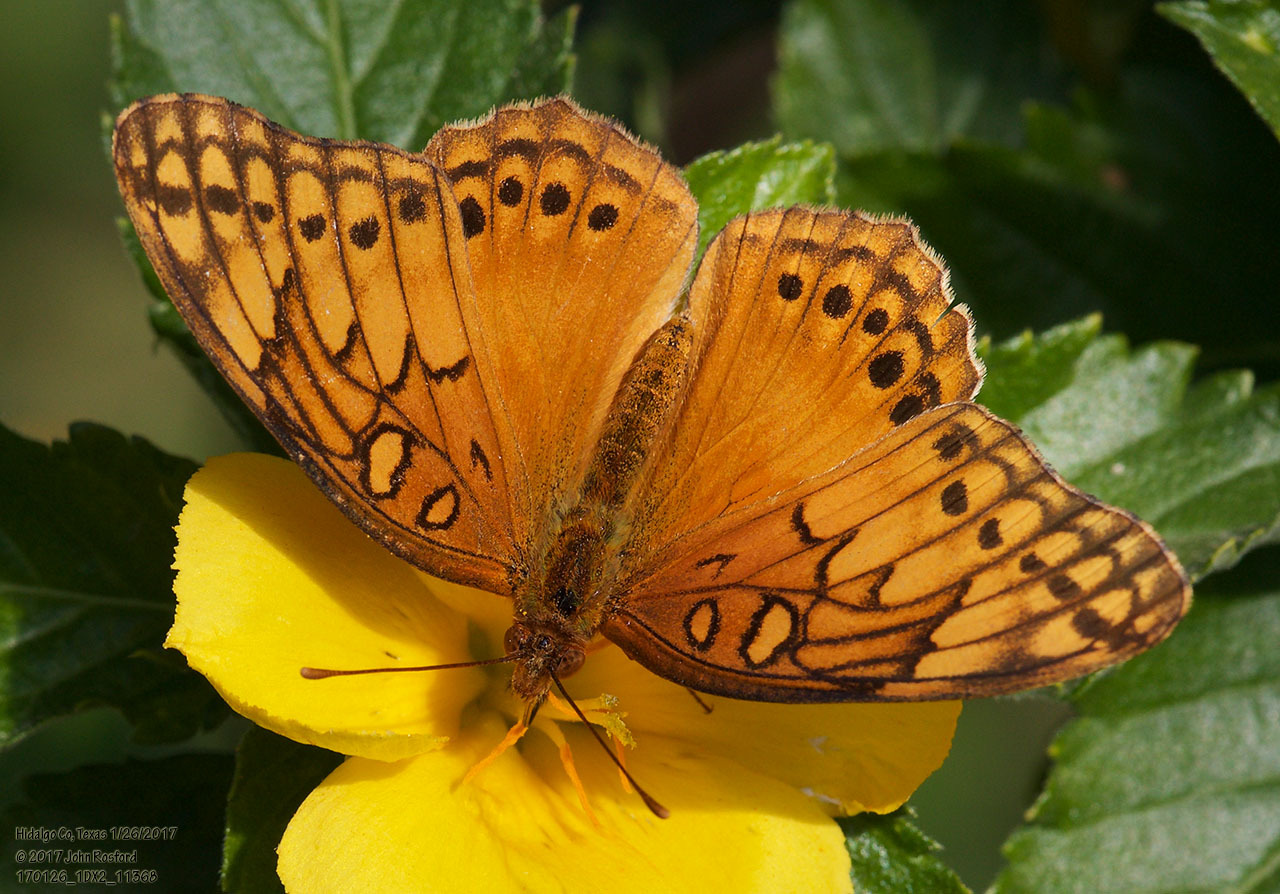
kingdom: Animalia
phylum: Arthropoda
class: Insecta
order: Lepidoptera
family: Nymphalidae
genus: Euptoieta
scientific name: Euptoieta hegesia
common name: Mexican fritillary
